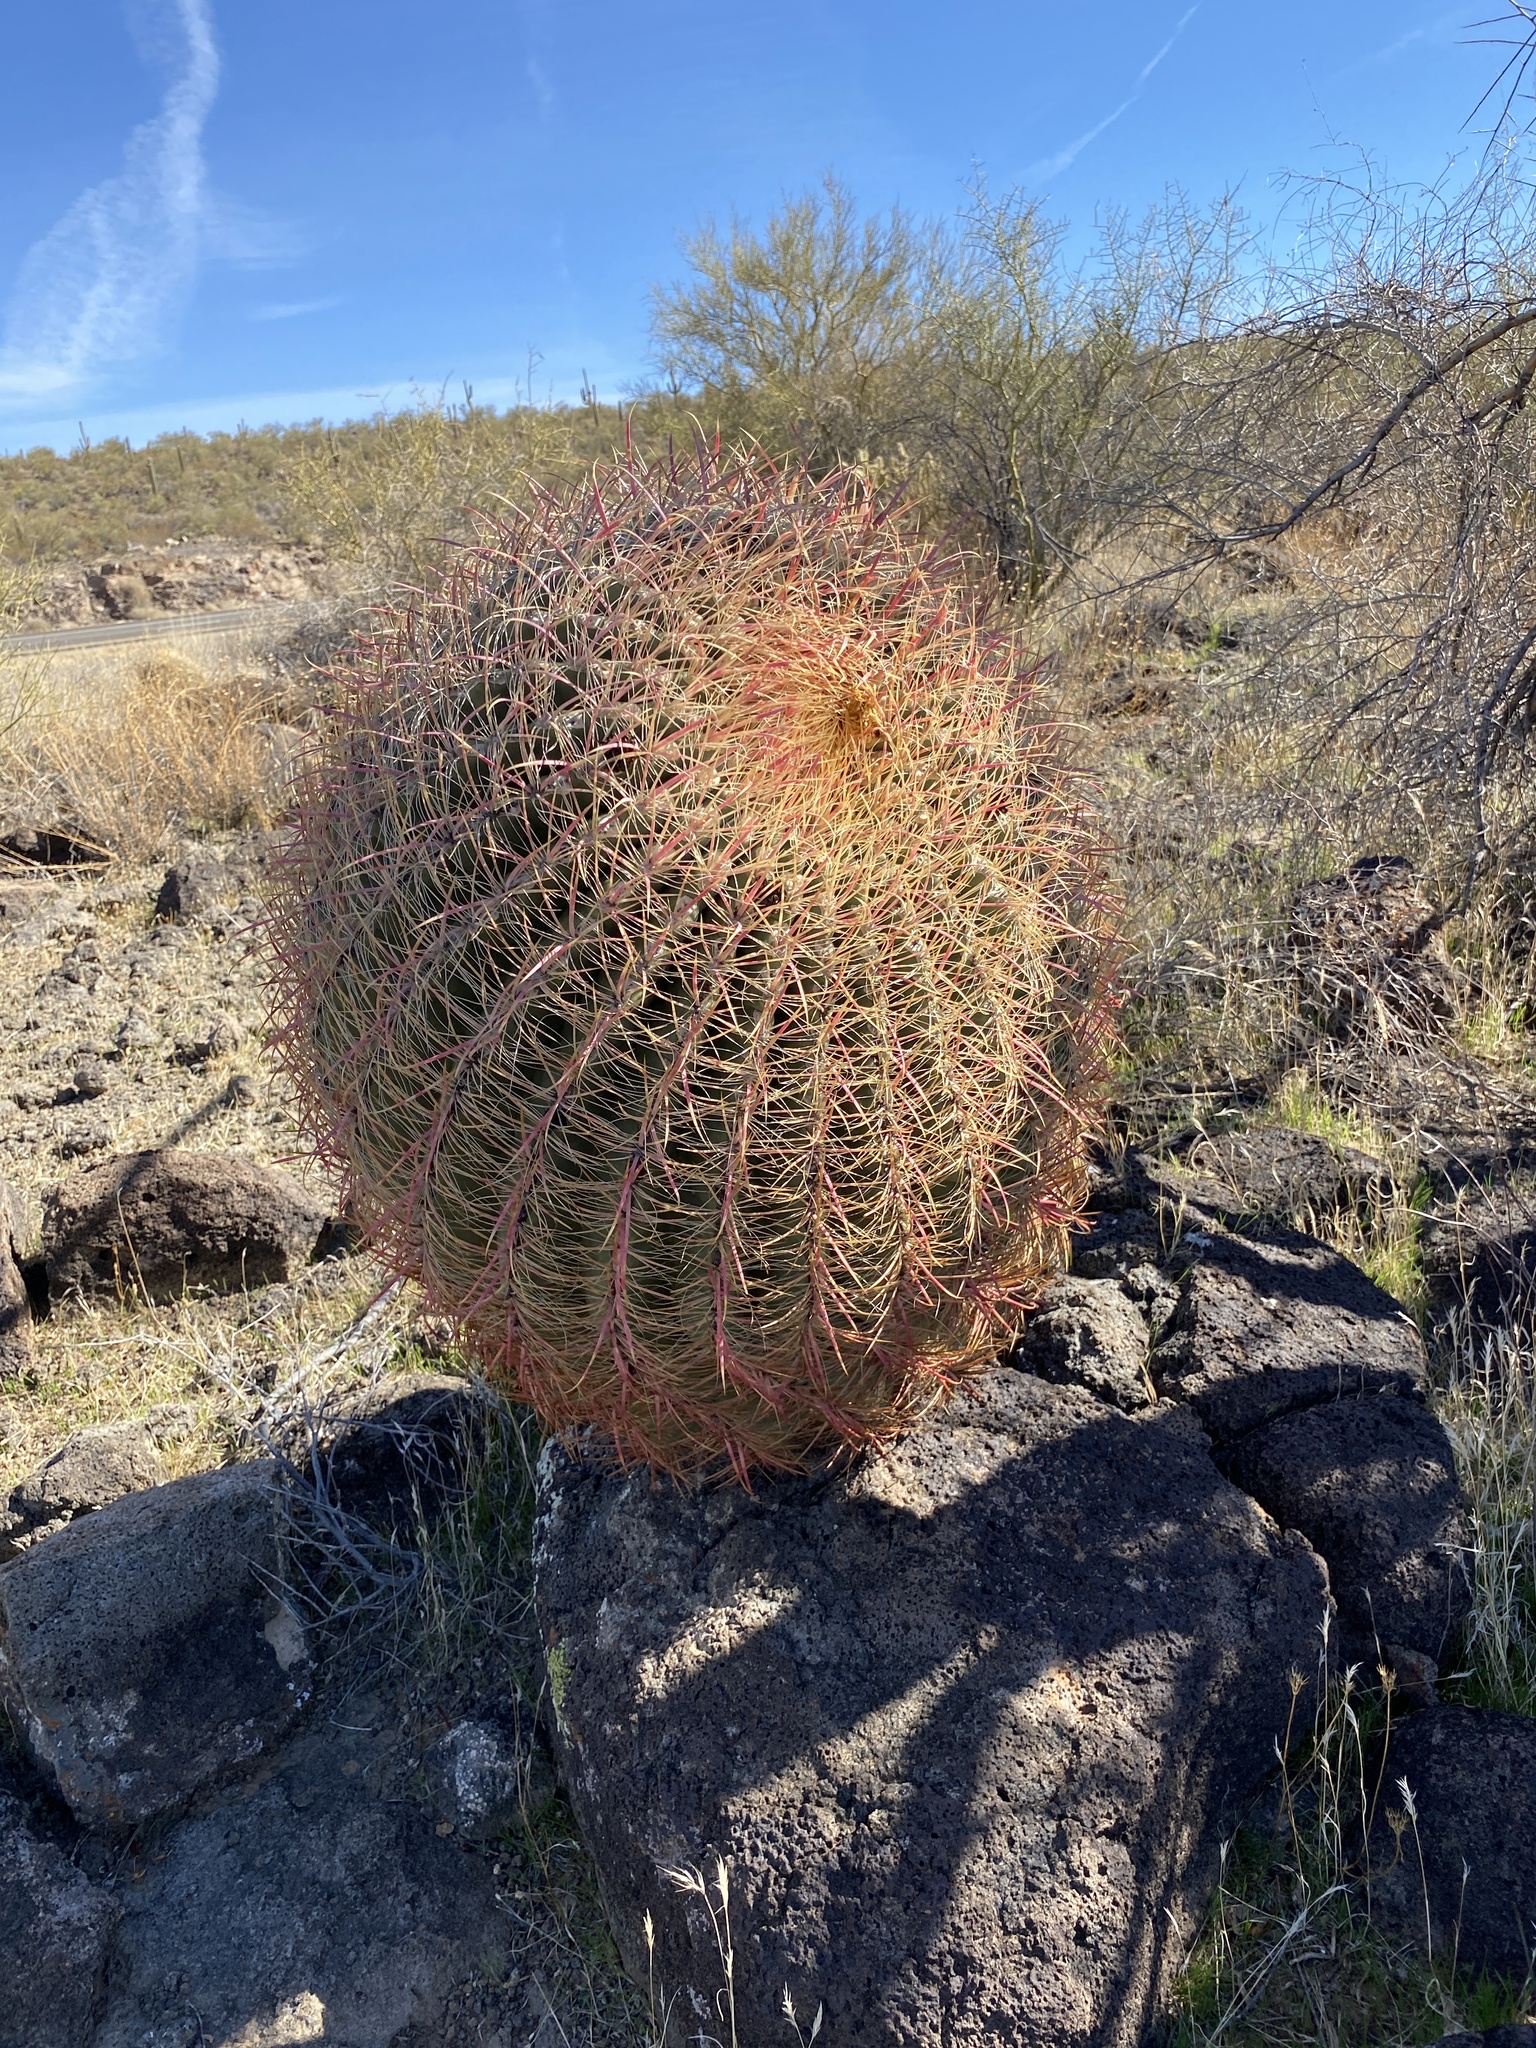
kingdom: Plantae
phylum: Tracheophyta
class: Magnoliopsida
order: Caryophyllales
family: Cactaceae
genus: Ferocactus
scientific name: Ferocactus cylindraceus
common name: California barrel cactus
